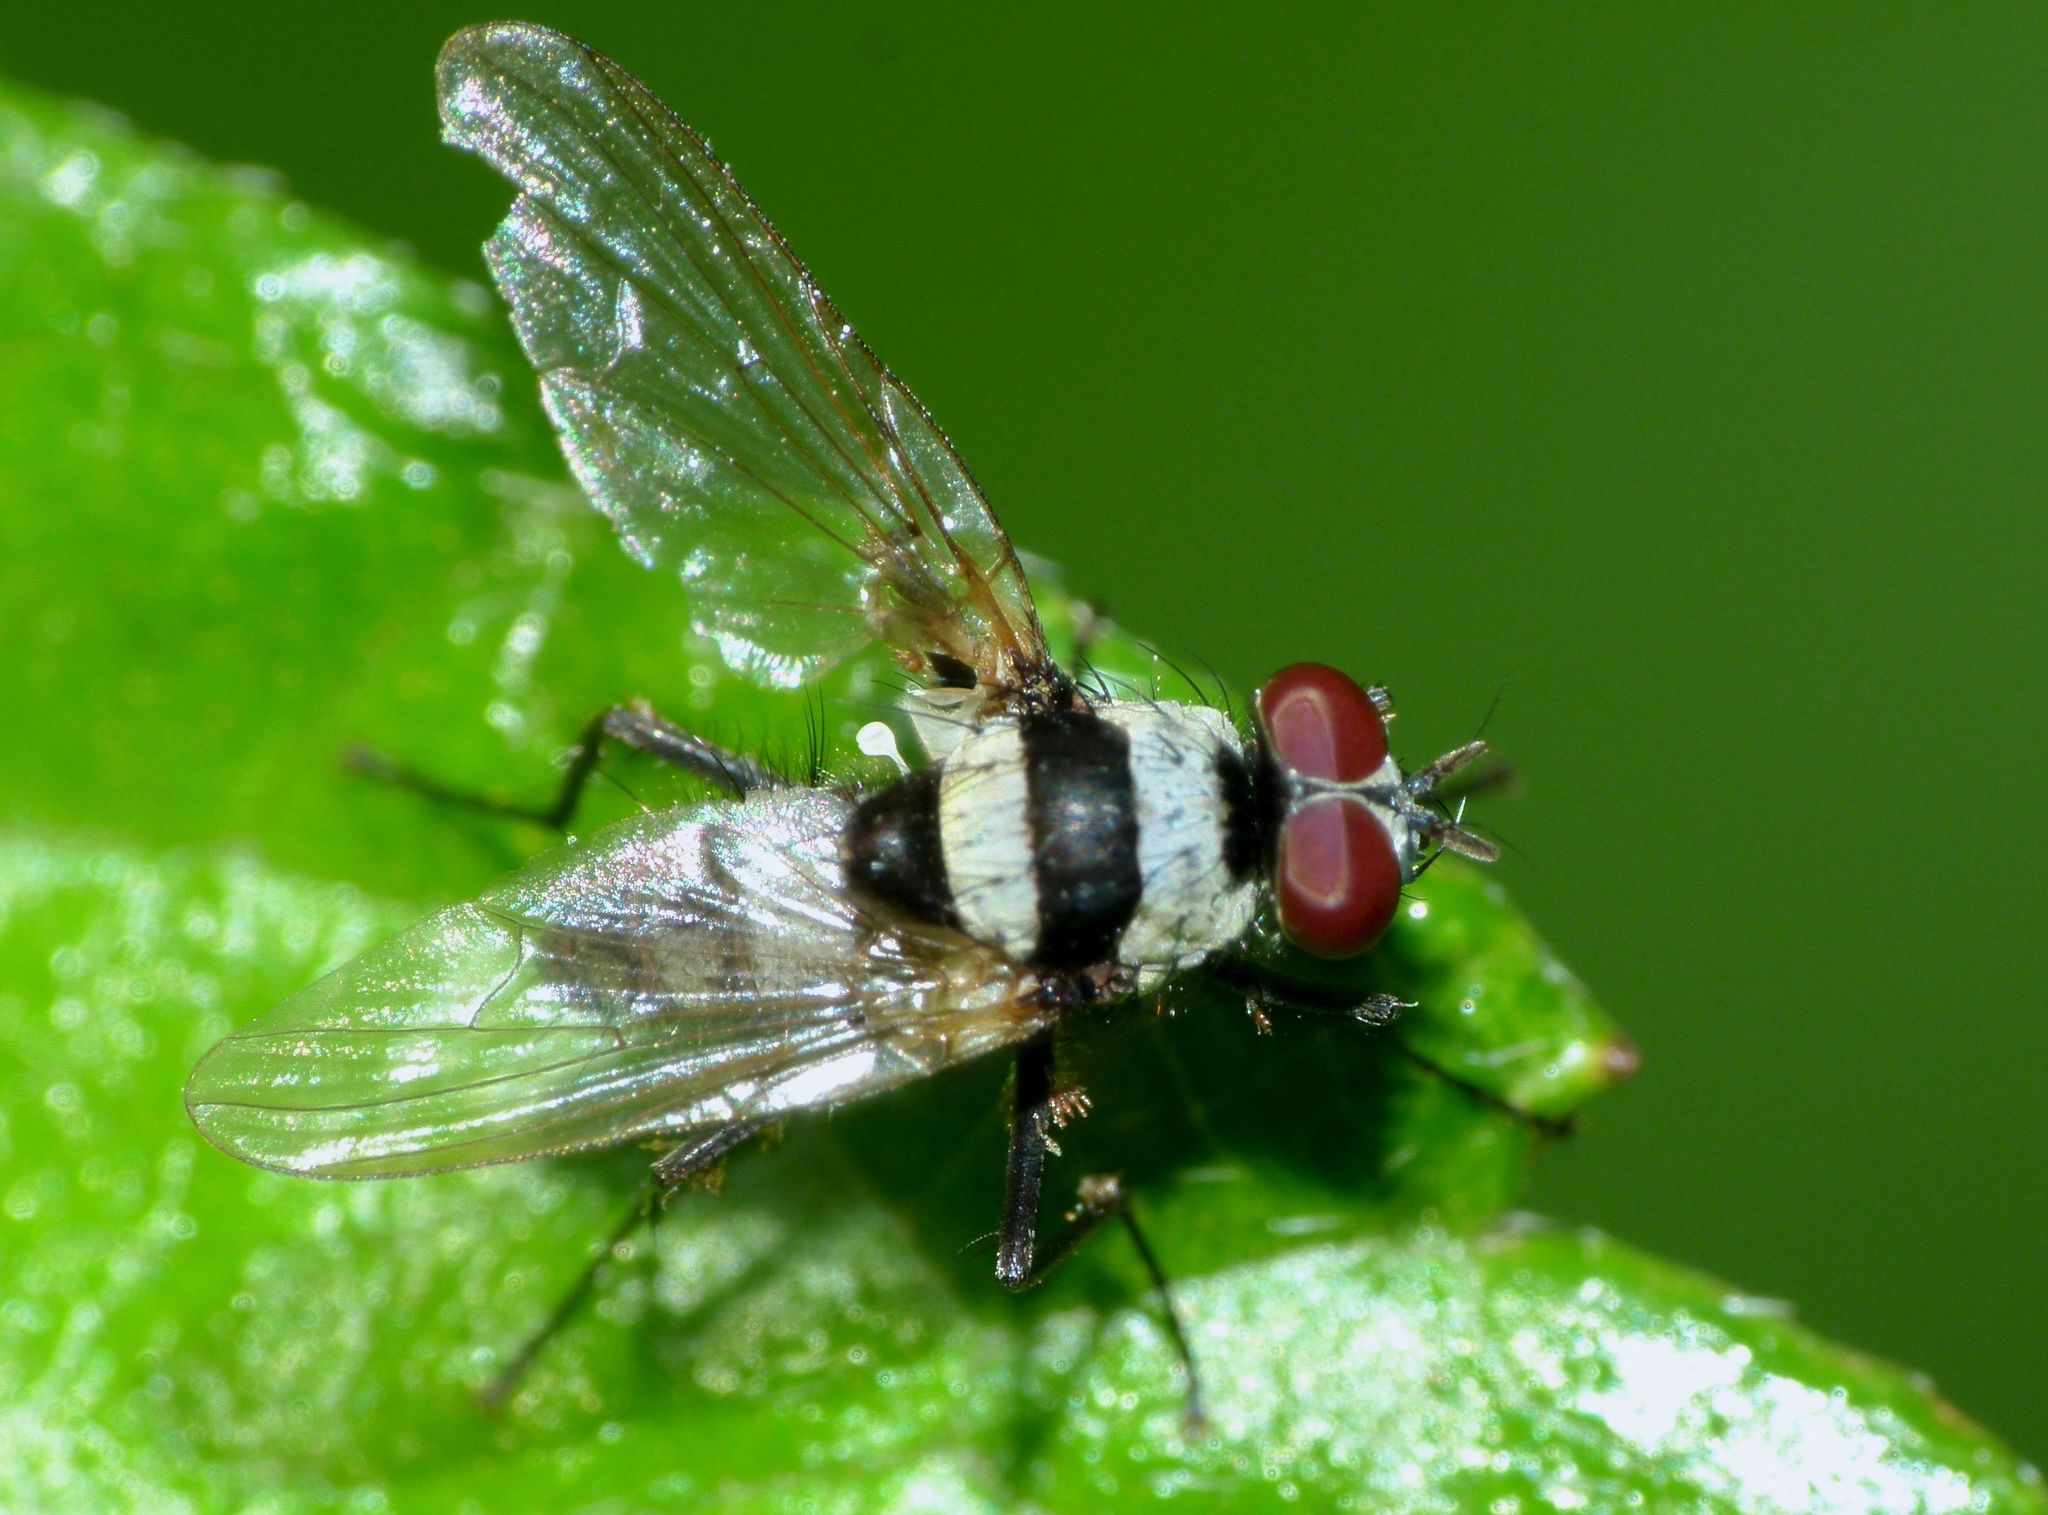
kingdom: Animalia
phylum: Arthropoda
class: Insecta
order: Diptera
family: Anthomyiidae
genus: Anthomyia
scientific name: Anthomyia medialis
